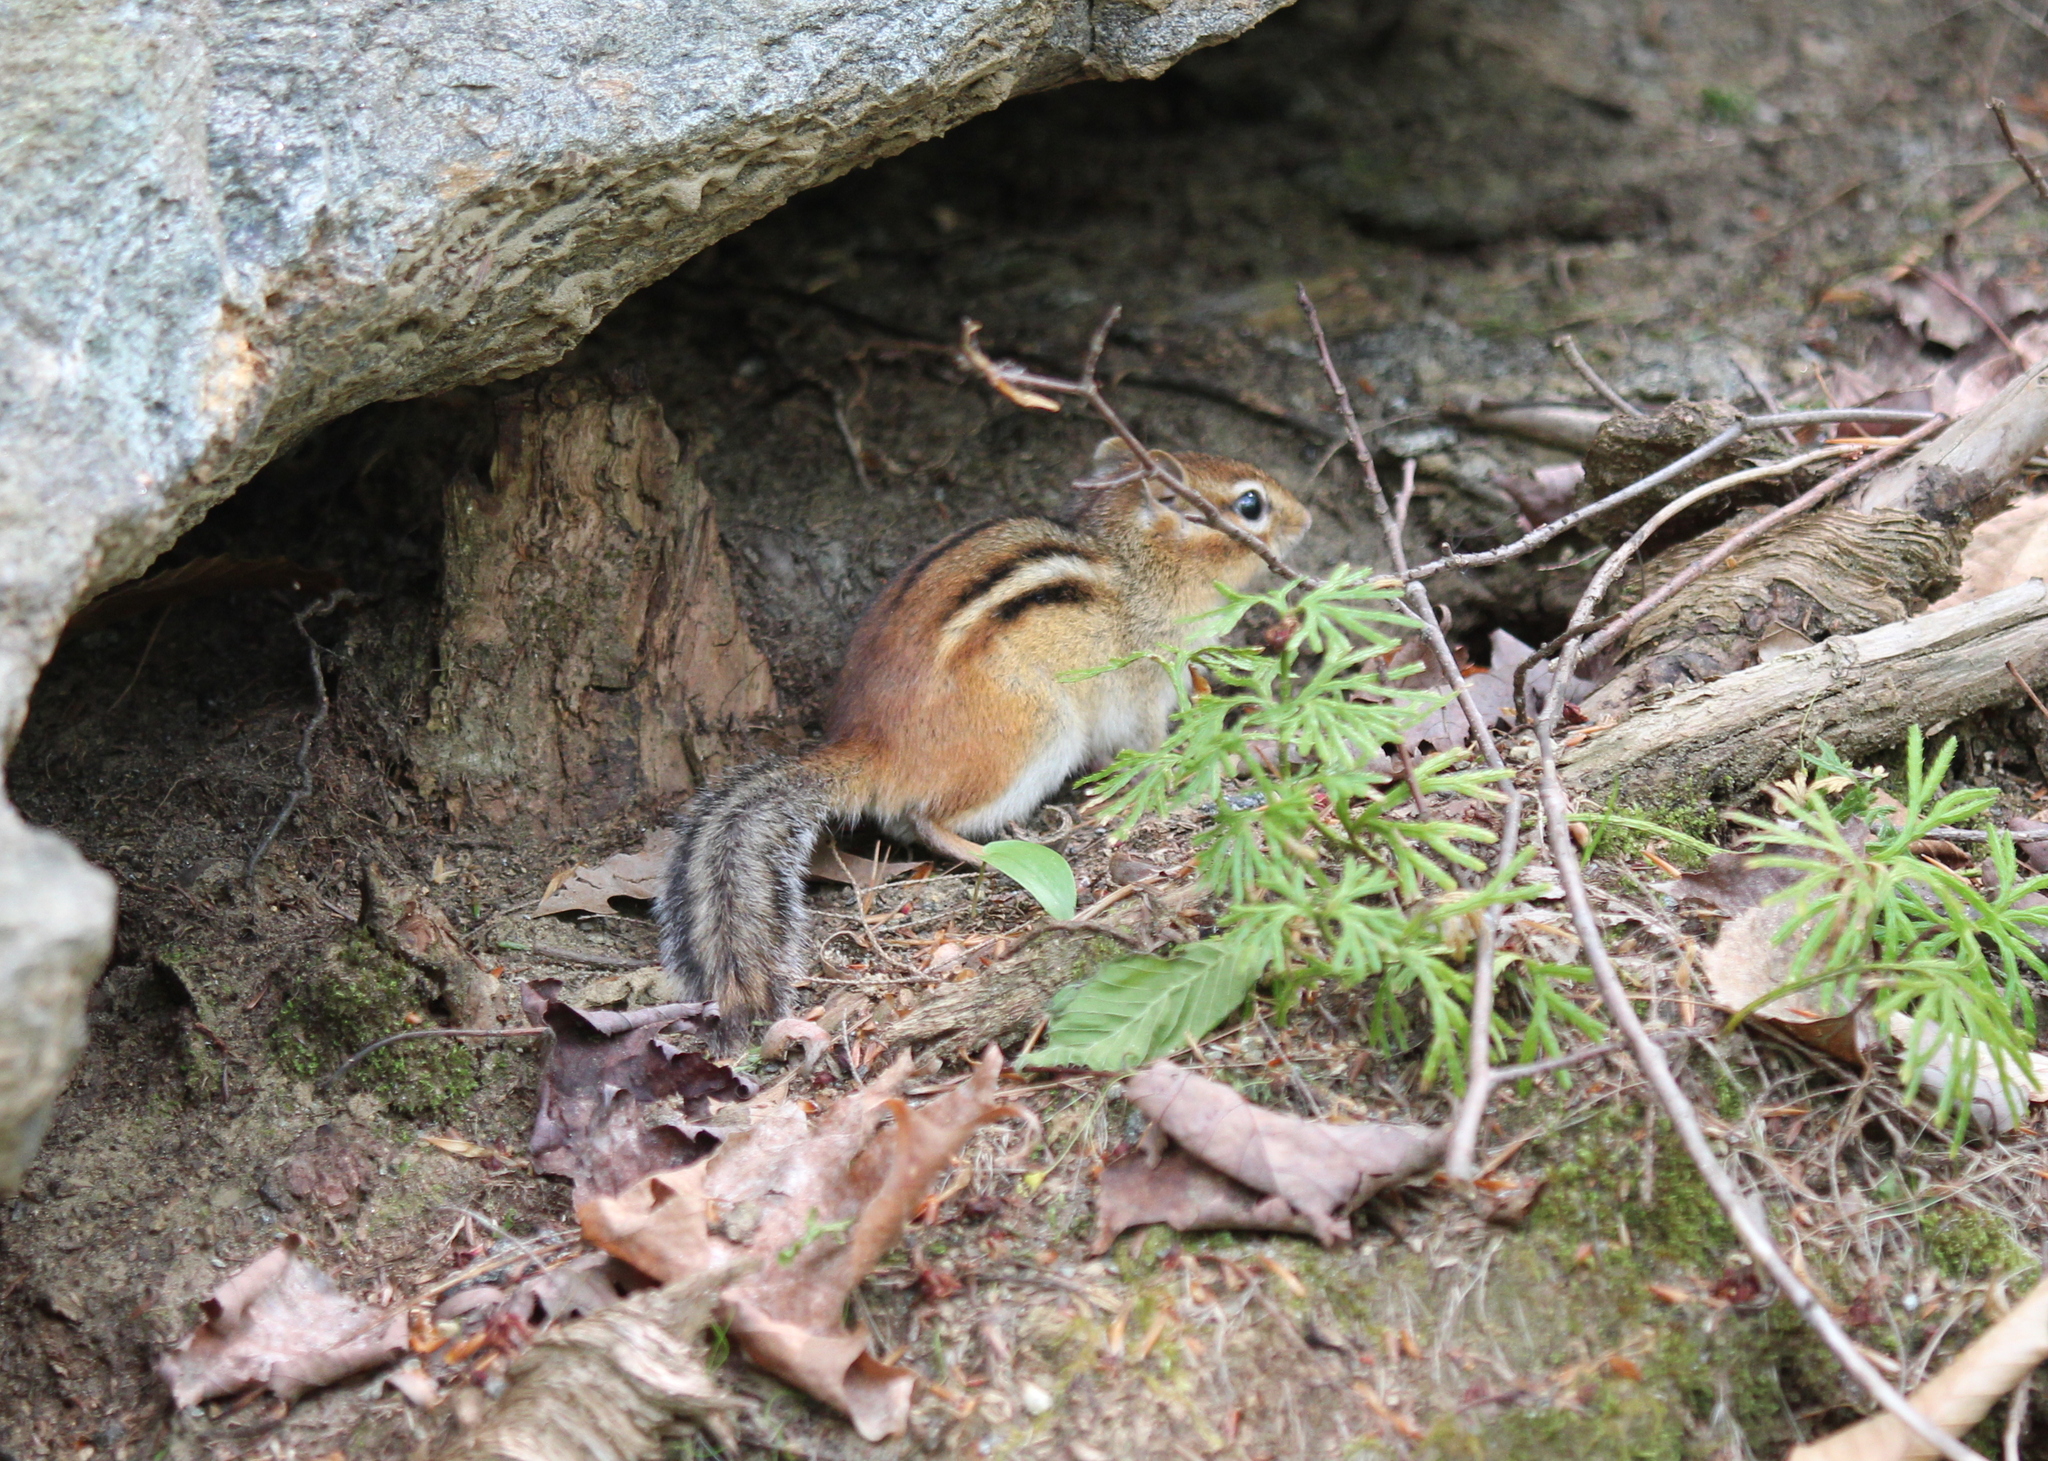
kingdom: Animalia
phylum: Chordata
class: Mammalia
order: Rodentia
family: Sciuridae
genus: Tamias
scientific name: Tamias striatus
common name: Eastern chipmunk
